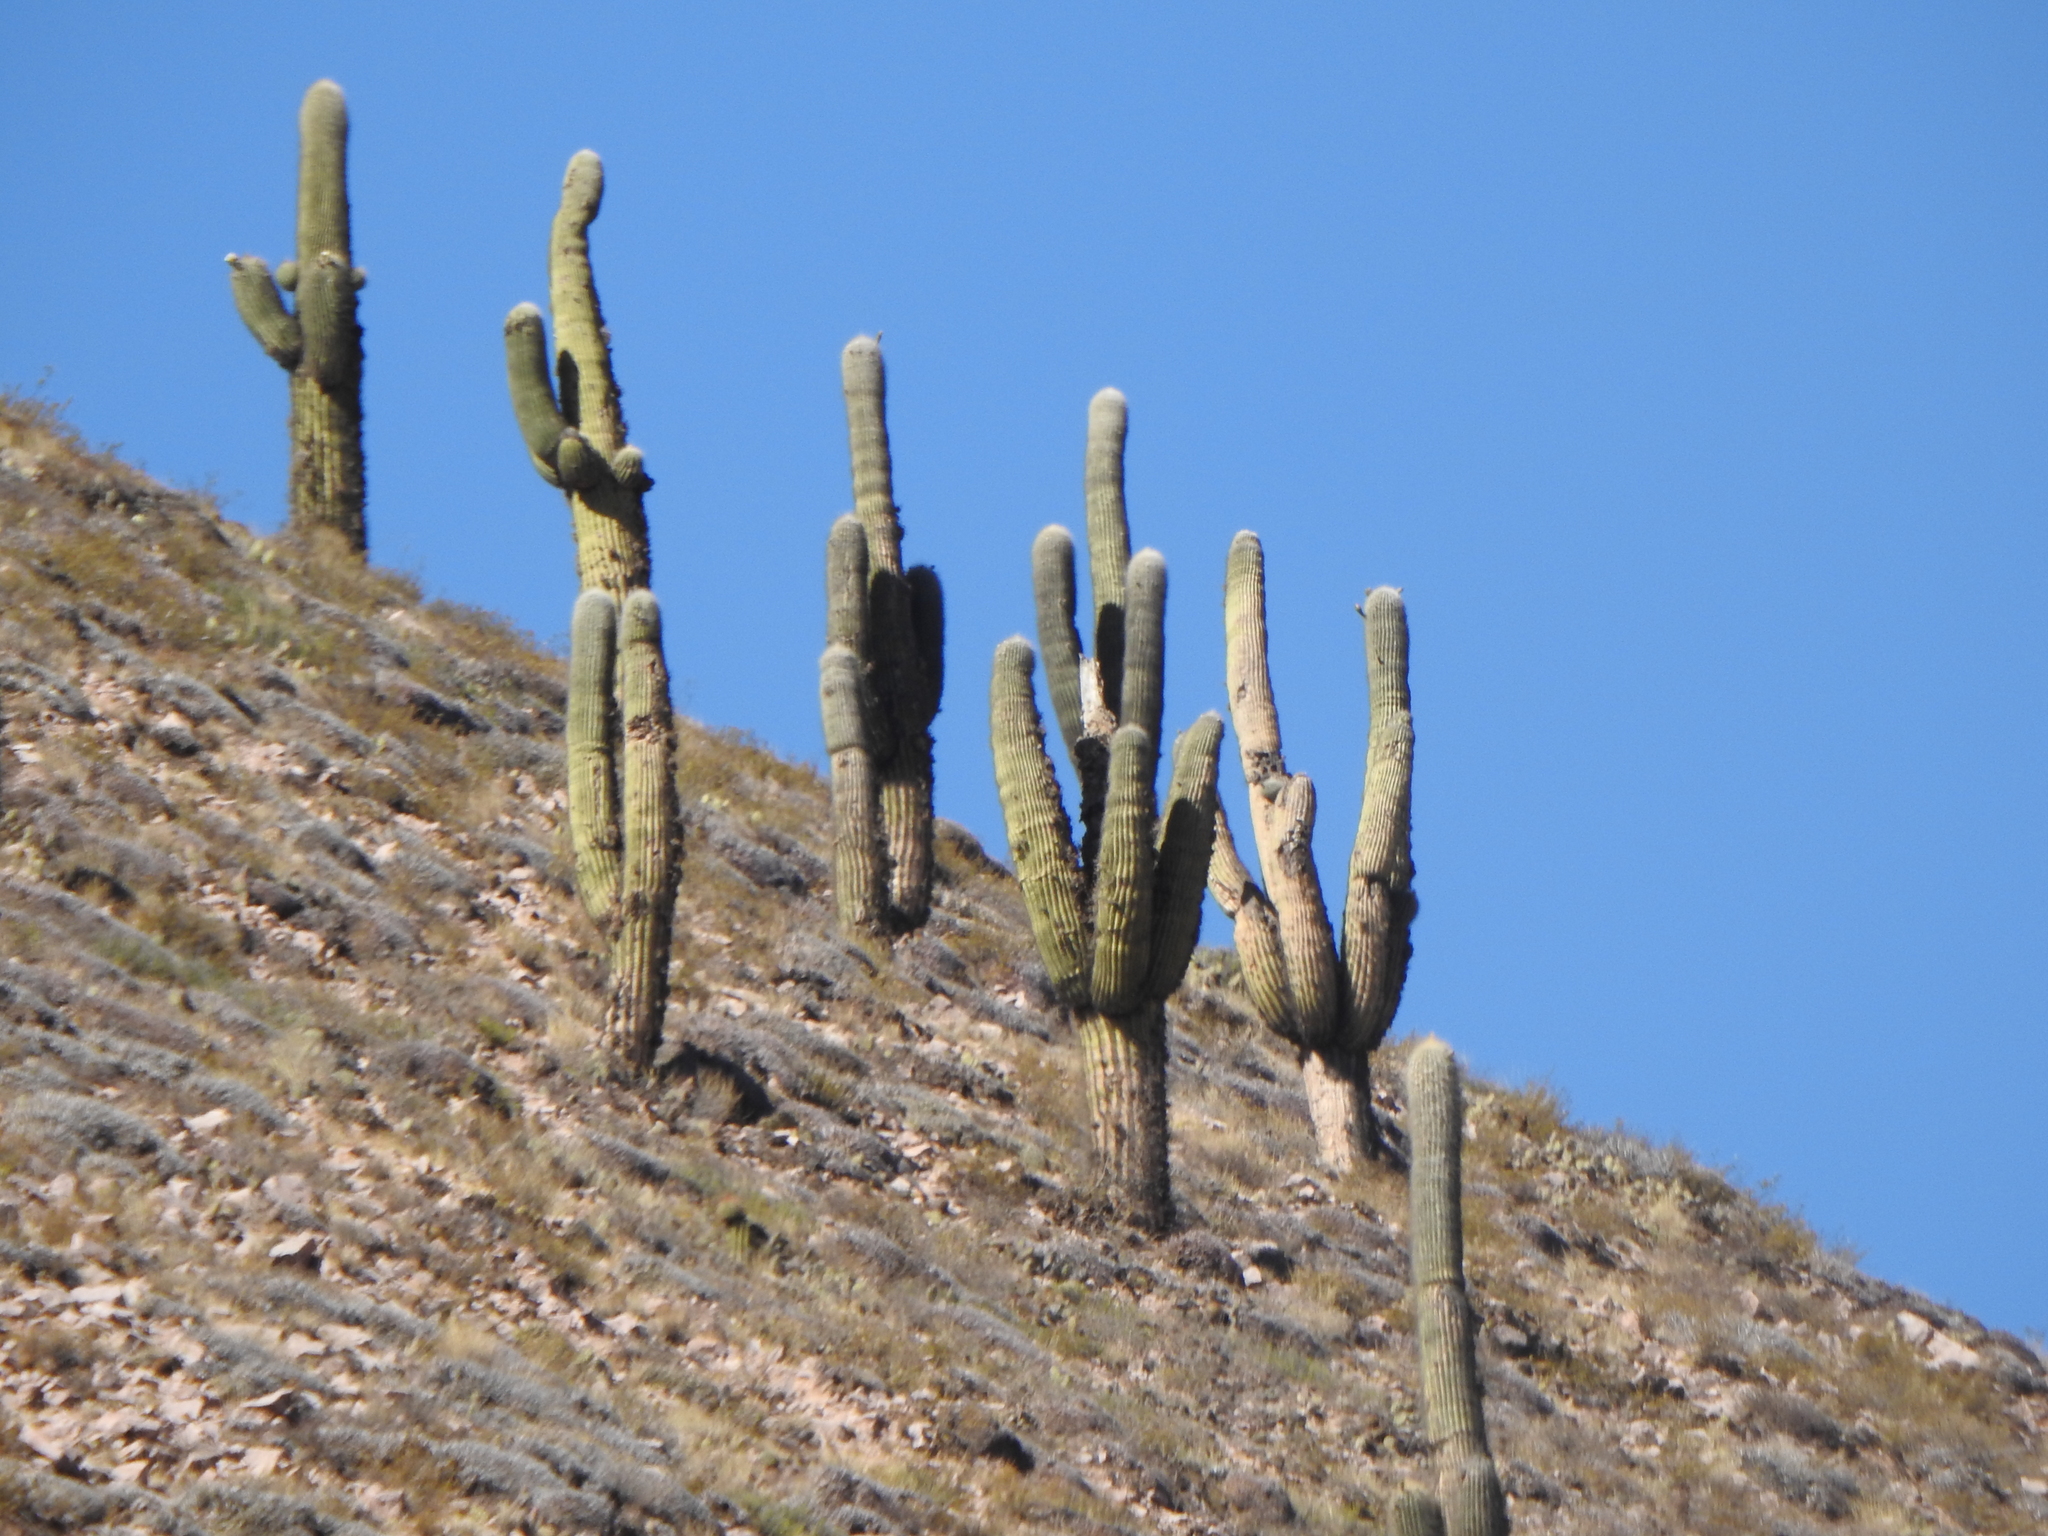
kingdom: Plantae
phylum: Tracheophyta
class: Magnoliopsida
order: Caryophyllales
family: Cactaceae
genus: Leucostele
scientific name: Leucostele atacamensis
